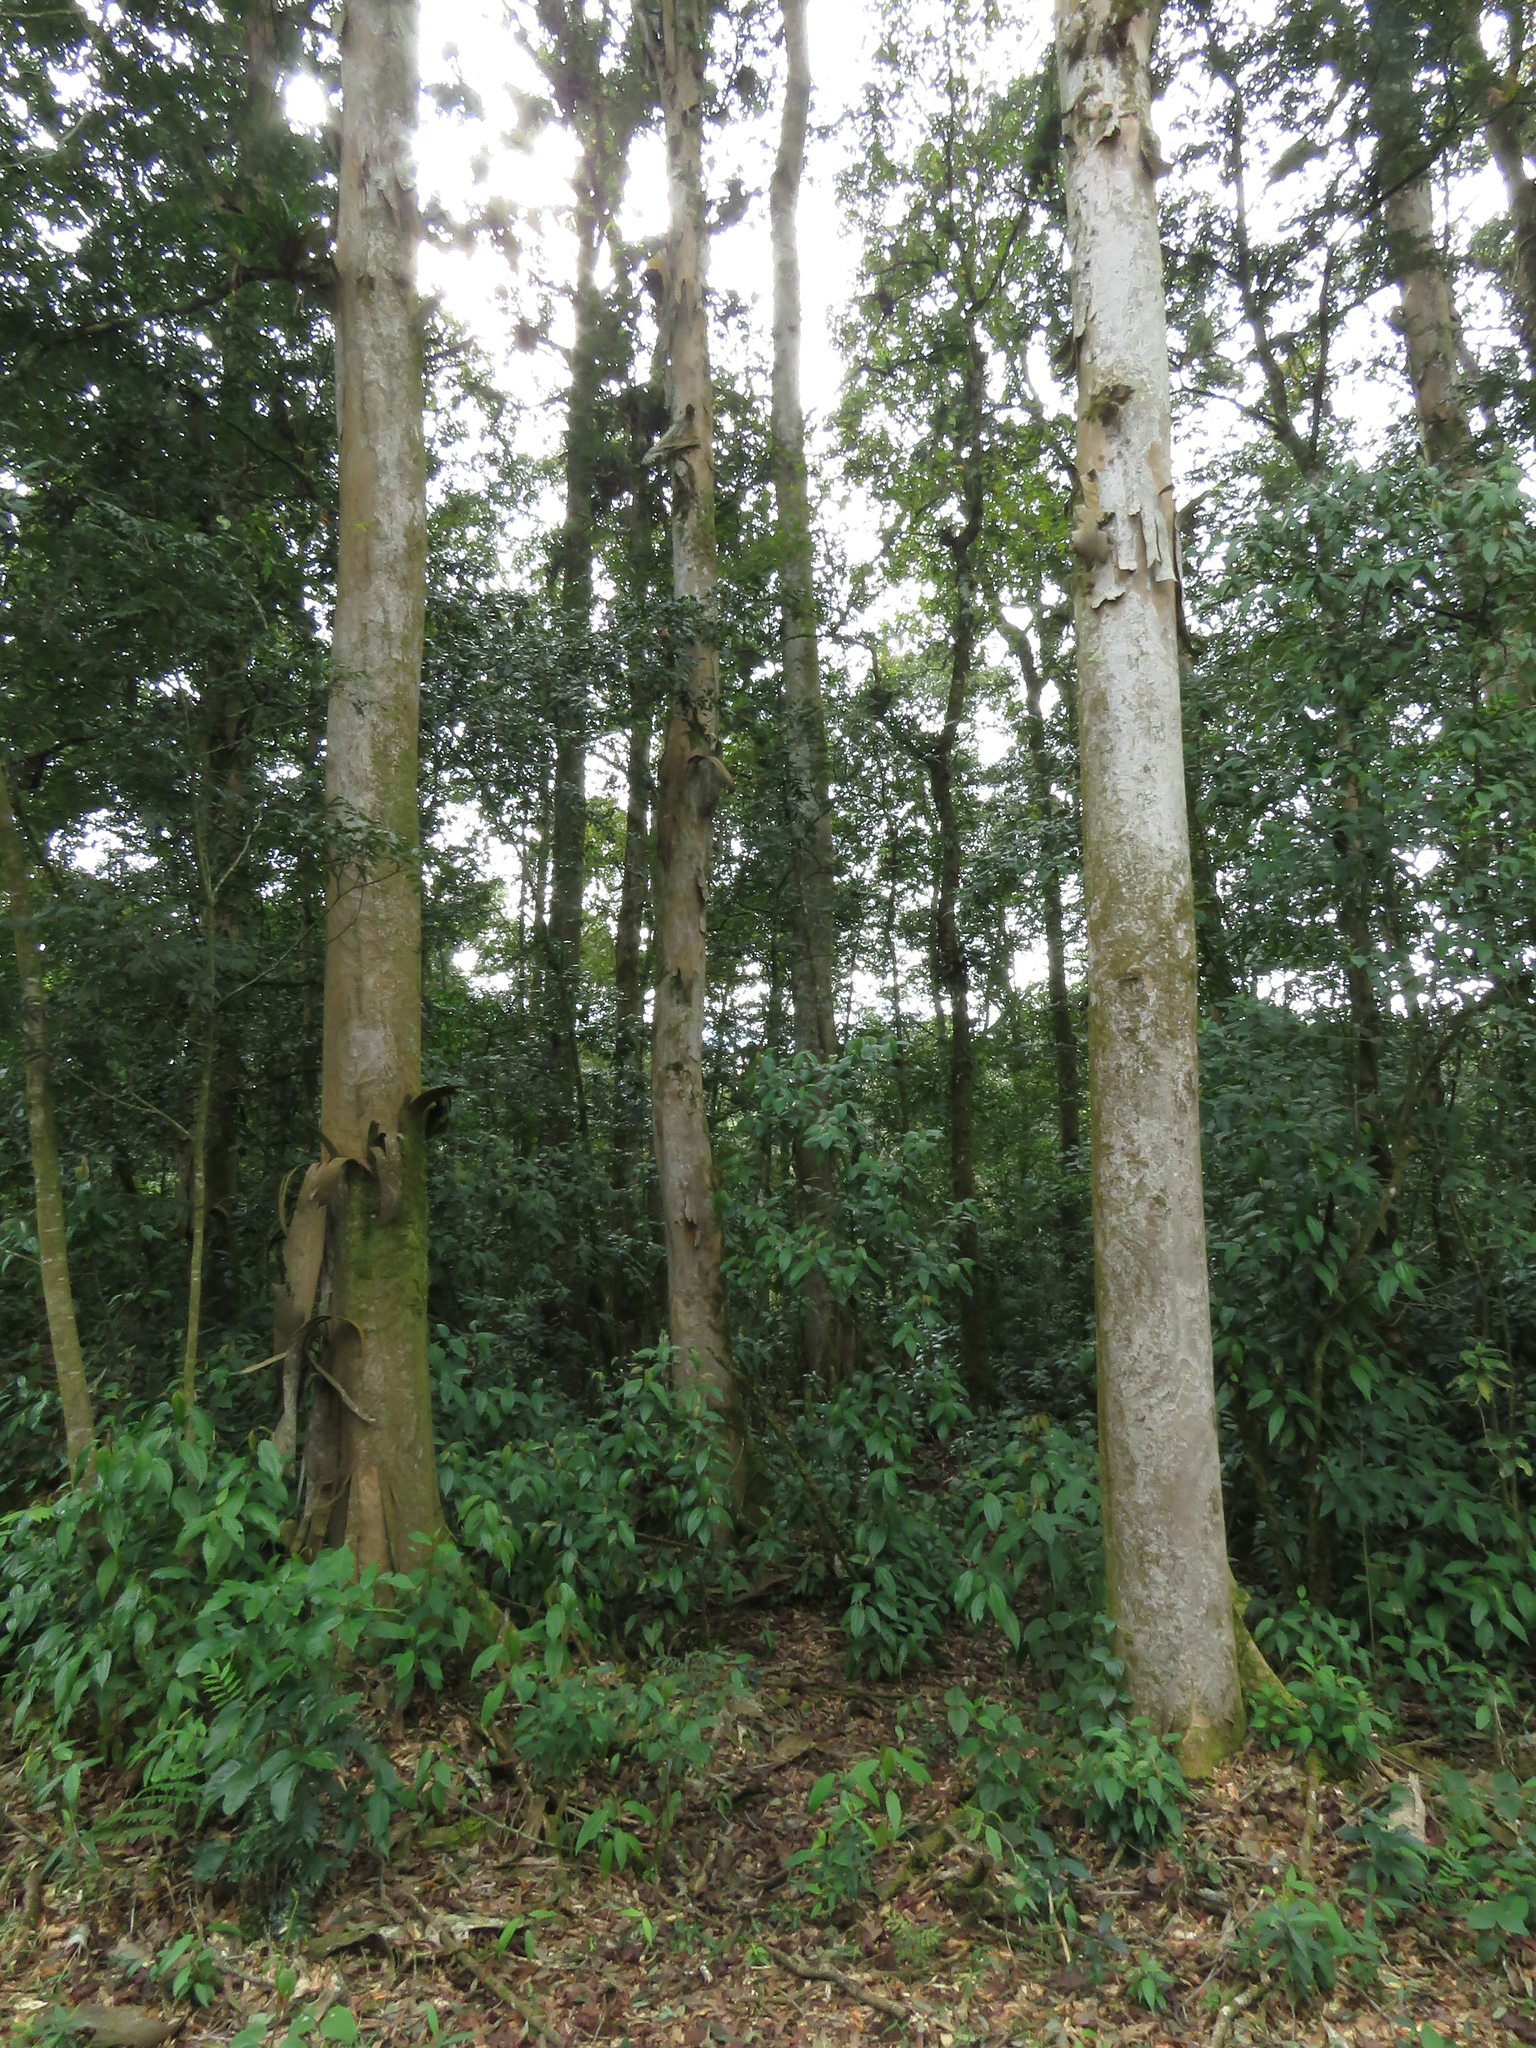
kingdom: Plantae
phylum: Tracheophyta
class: Magnoliopsida
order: Fagales
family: Juglandaceae
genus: Oreomunnea
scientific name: Oreomunnea mexicana
